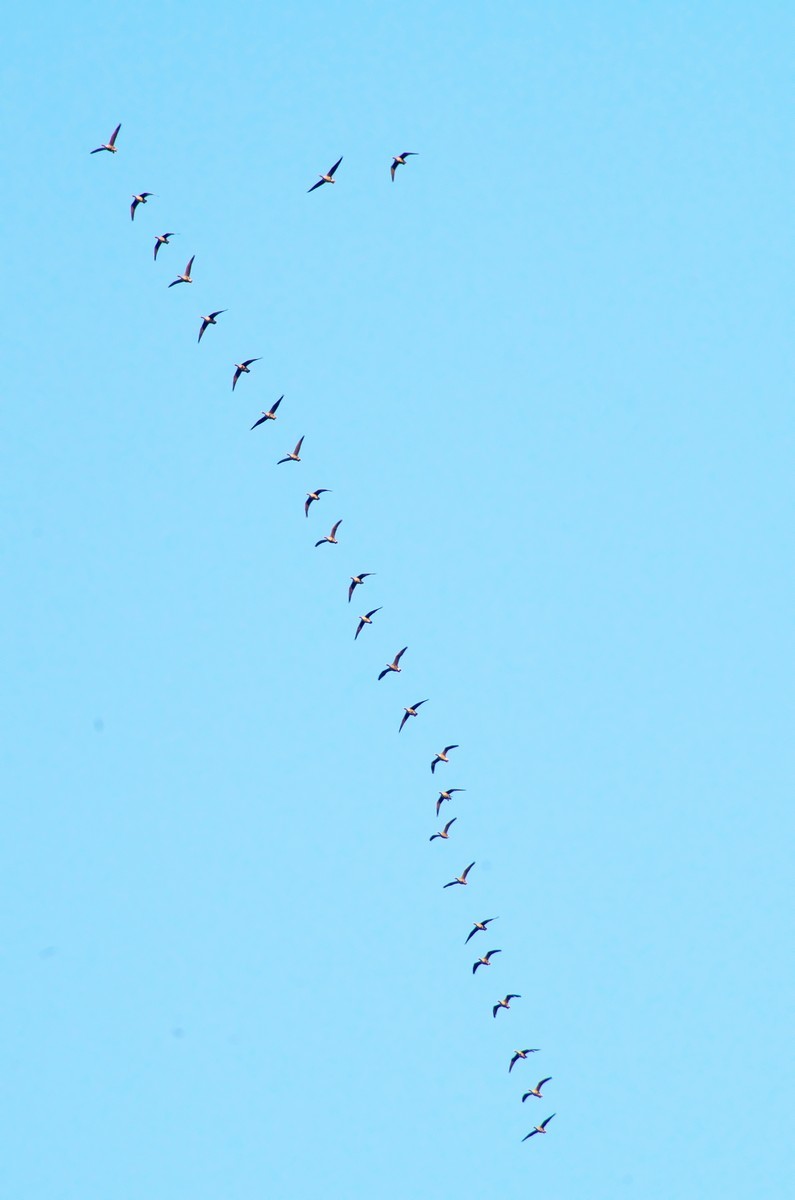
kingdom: Animalia
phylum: Chordata
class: Aves
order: Anseriformes
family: Anatidae
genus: Anser
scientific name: Anser albifrons
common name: Greater white-fronted goose
